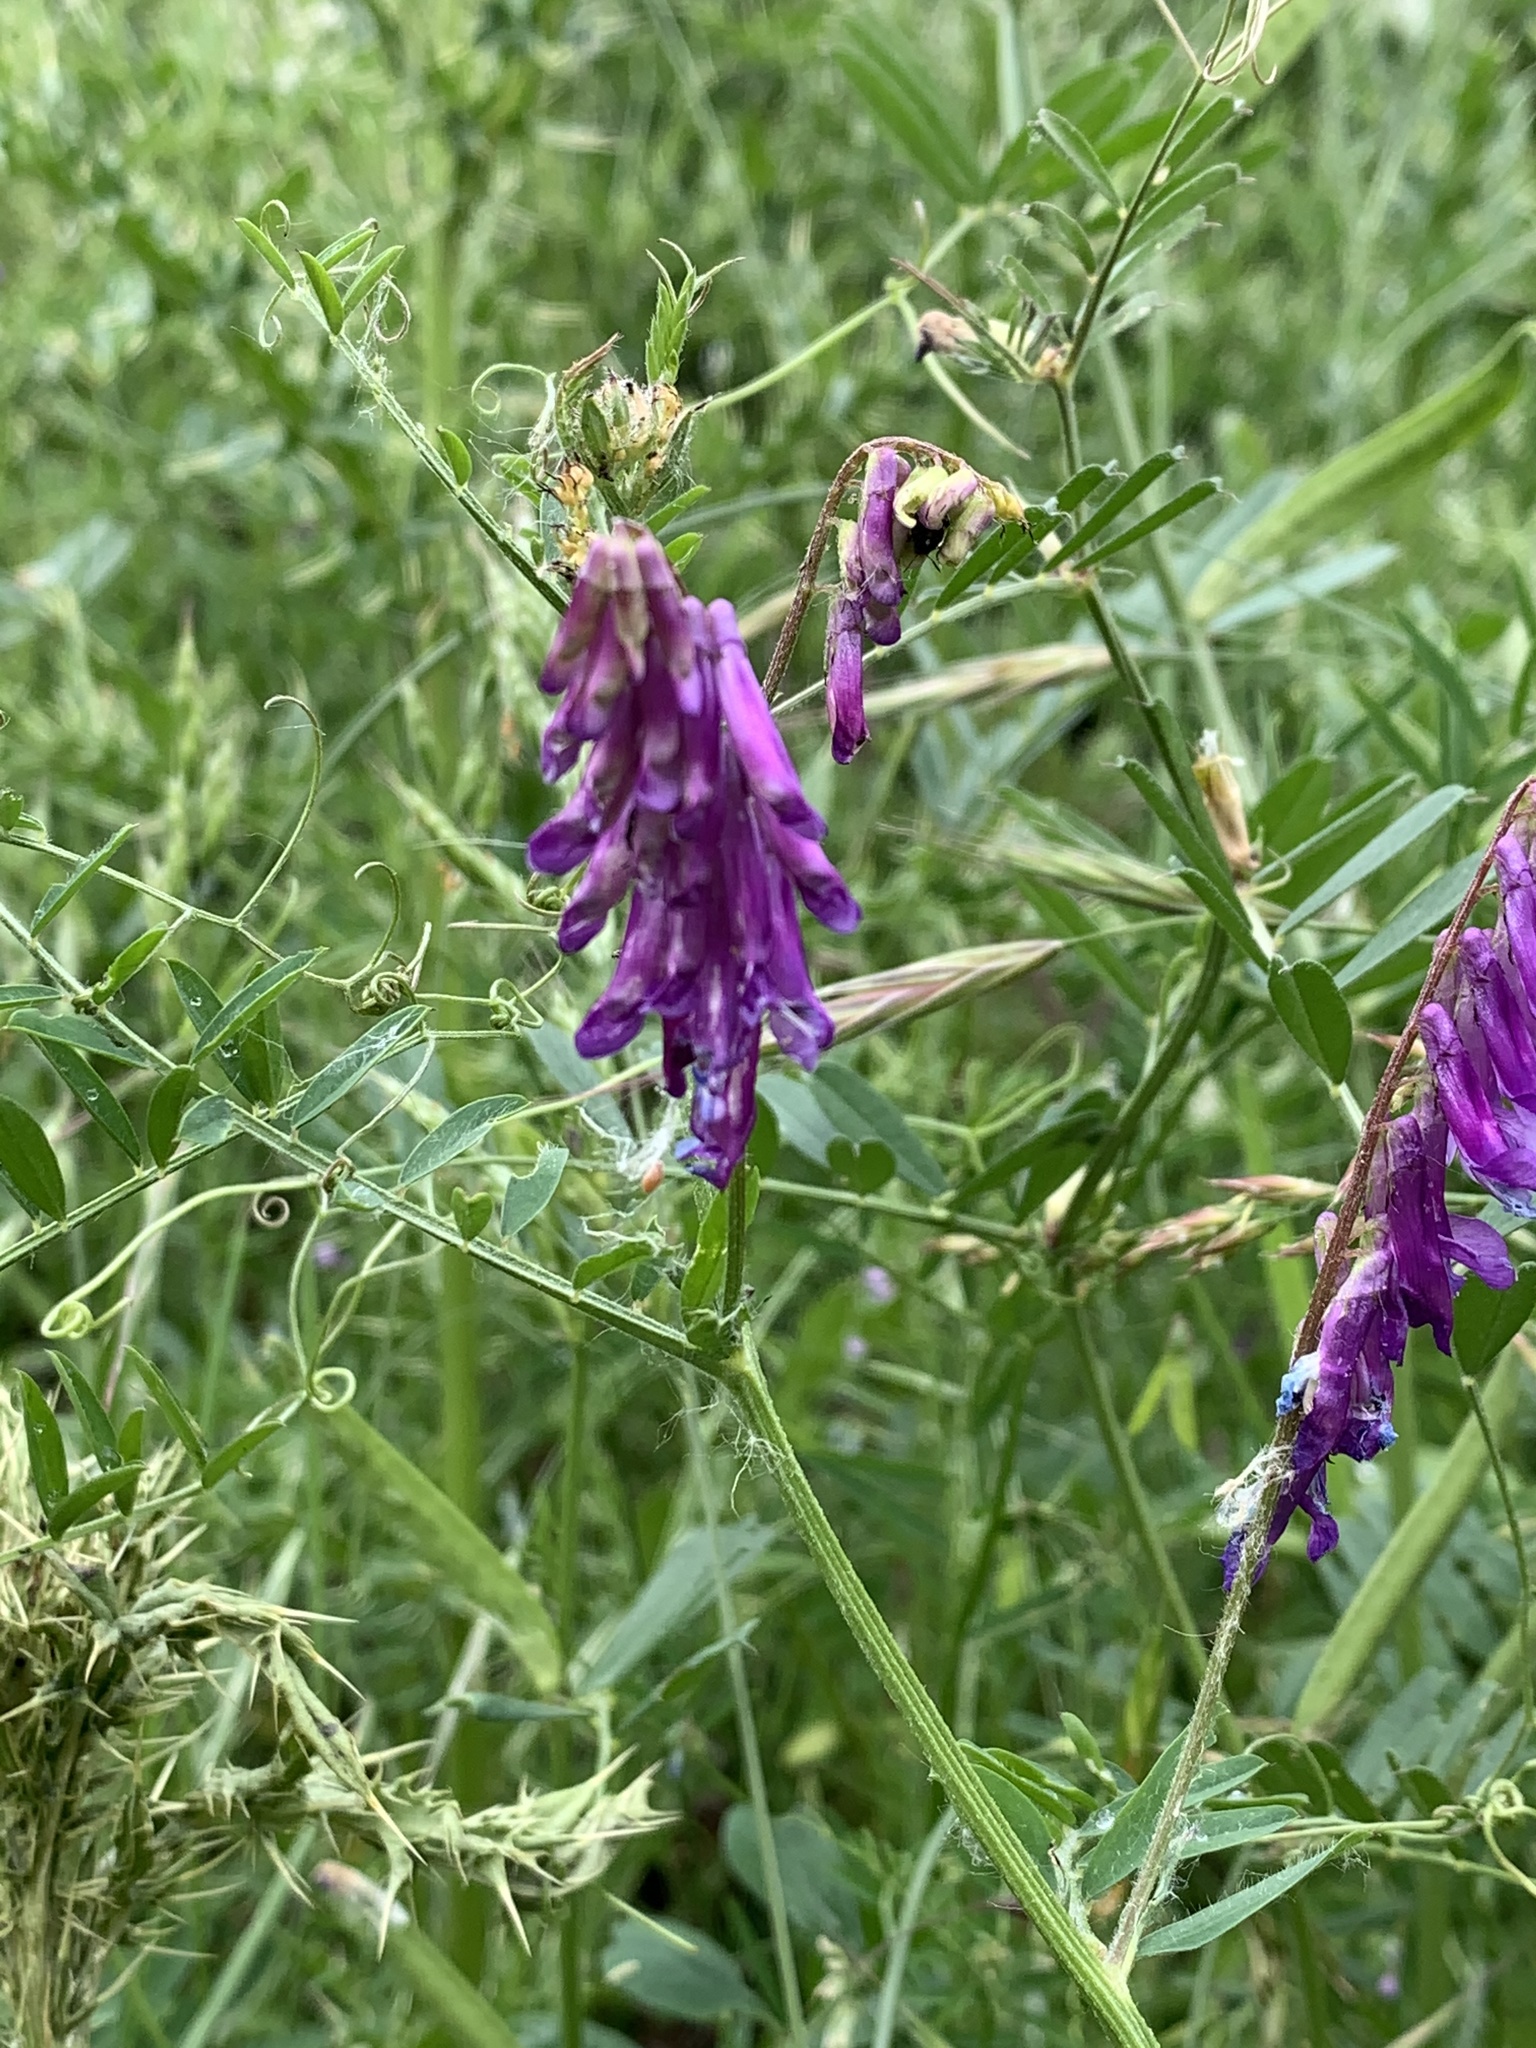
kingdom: Plantae
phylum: Tracheophyta
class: Magnoliopsida
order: Fabales
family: Fabaceae
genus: Vicia
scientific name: Vicia villosa
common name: Fodder vetch
